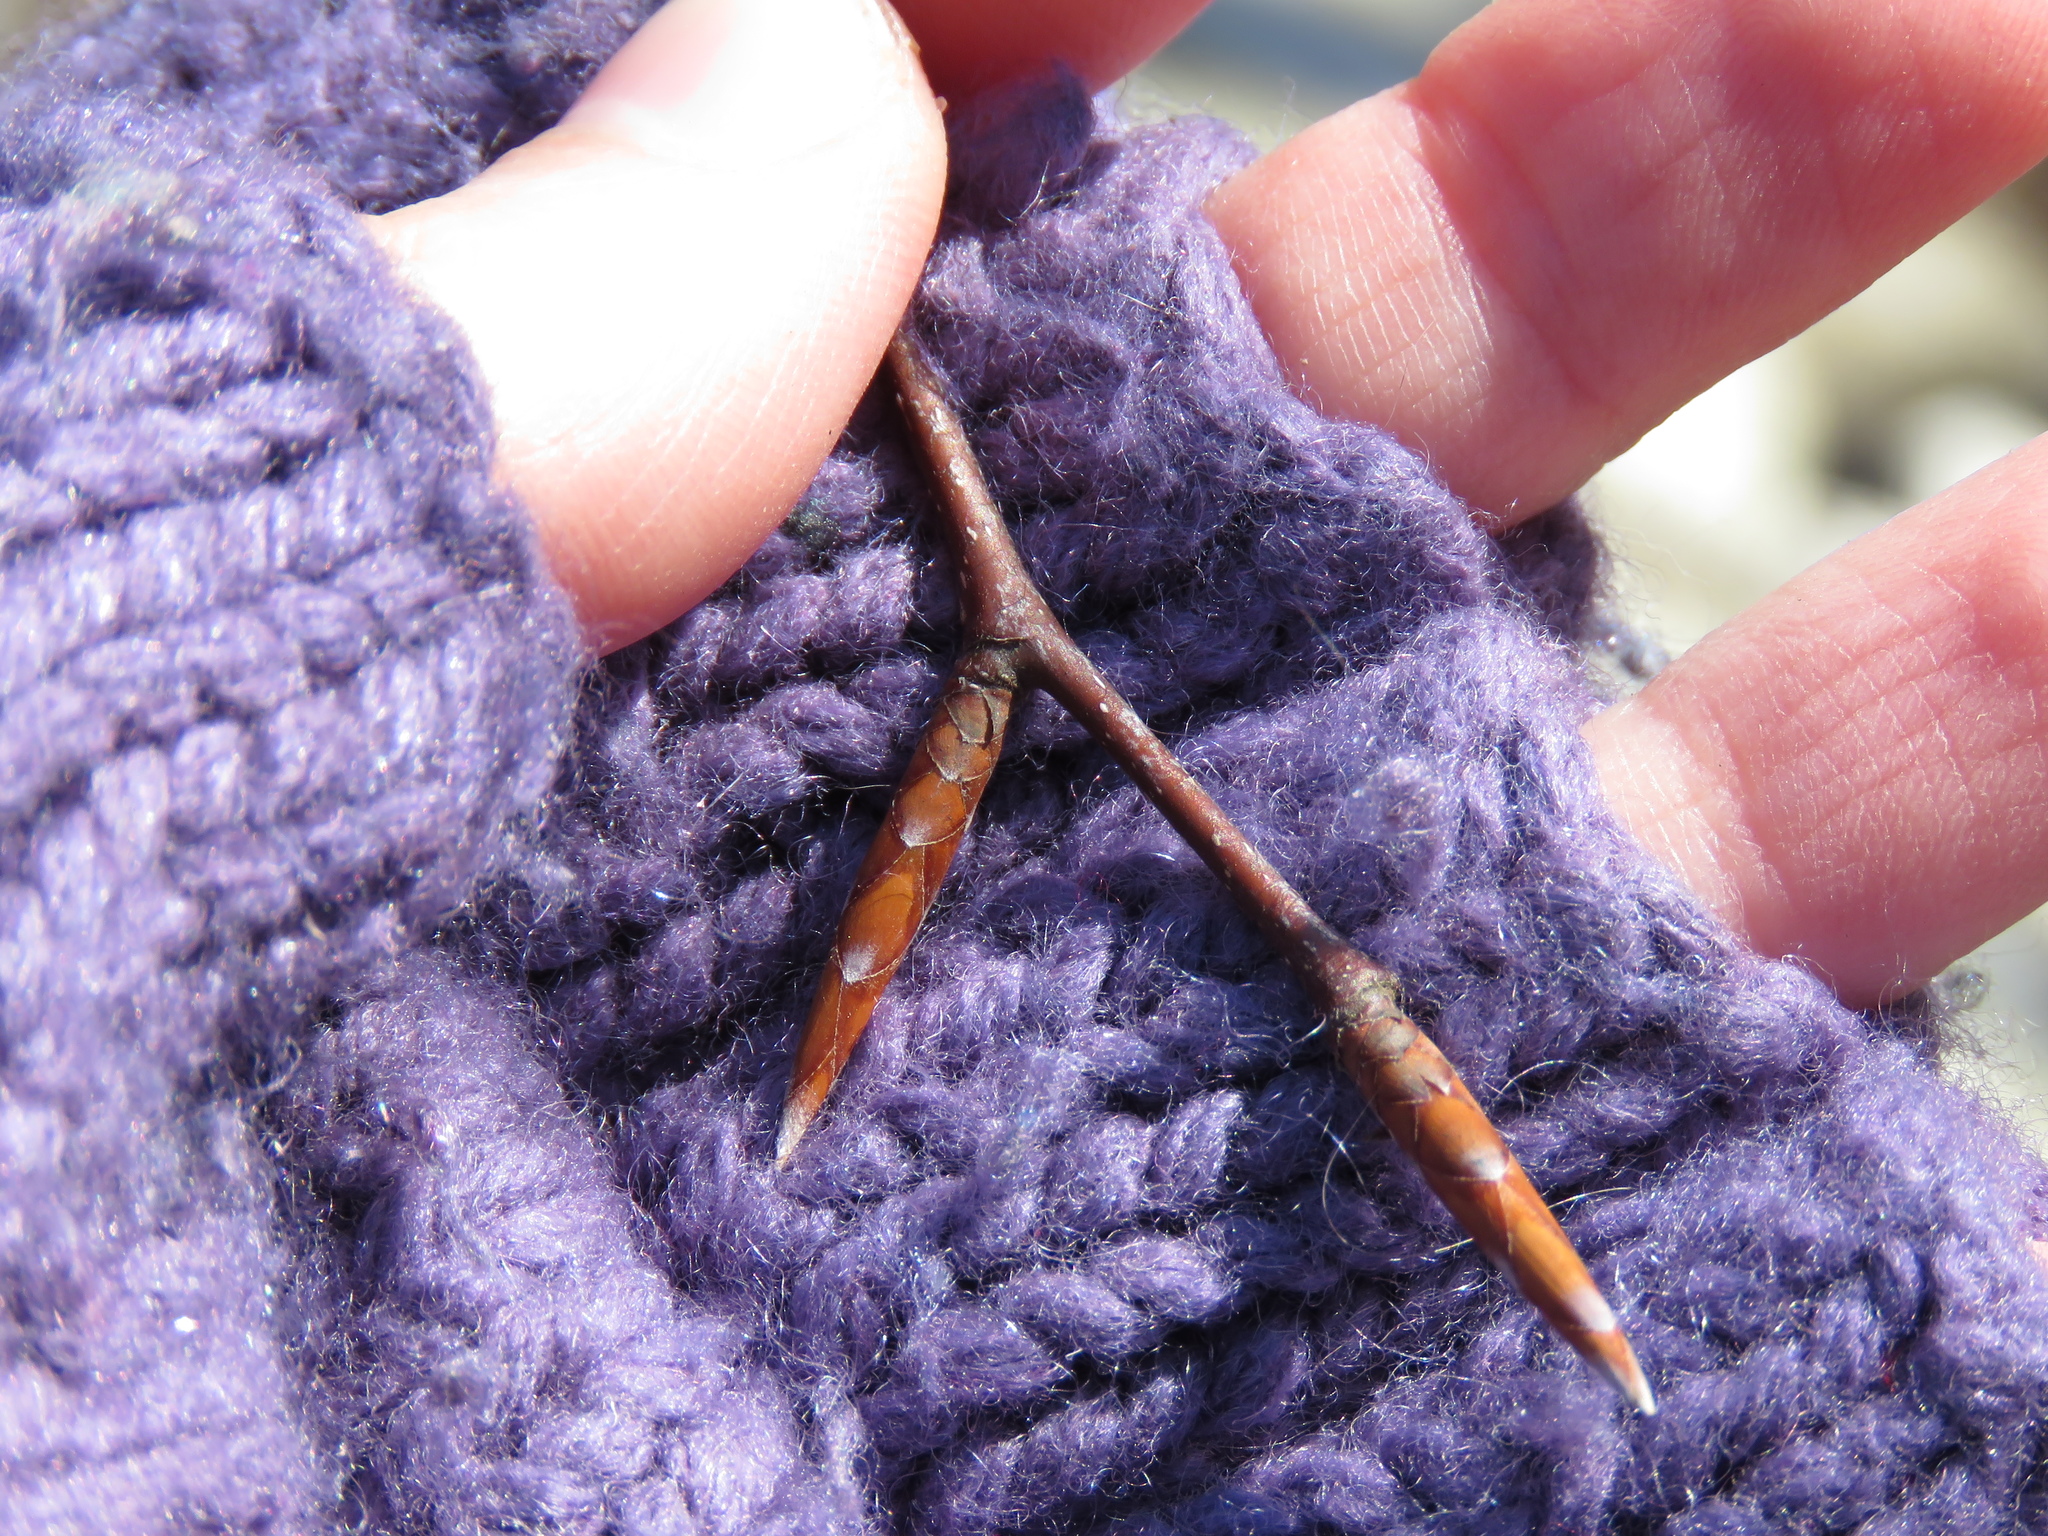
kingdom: Plantae
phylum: Tracheophyta
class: Magnoliopsida
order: Fagales
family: Fagaceae
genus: Fagus
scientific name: Fagus grandifolia
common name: American beech
